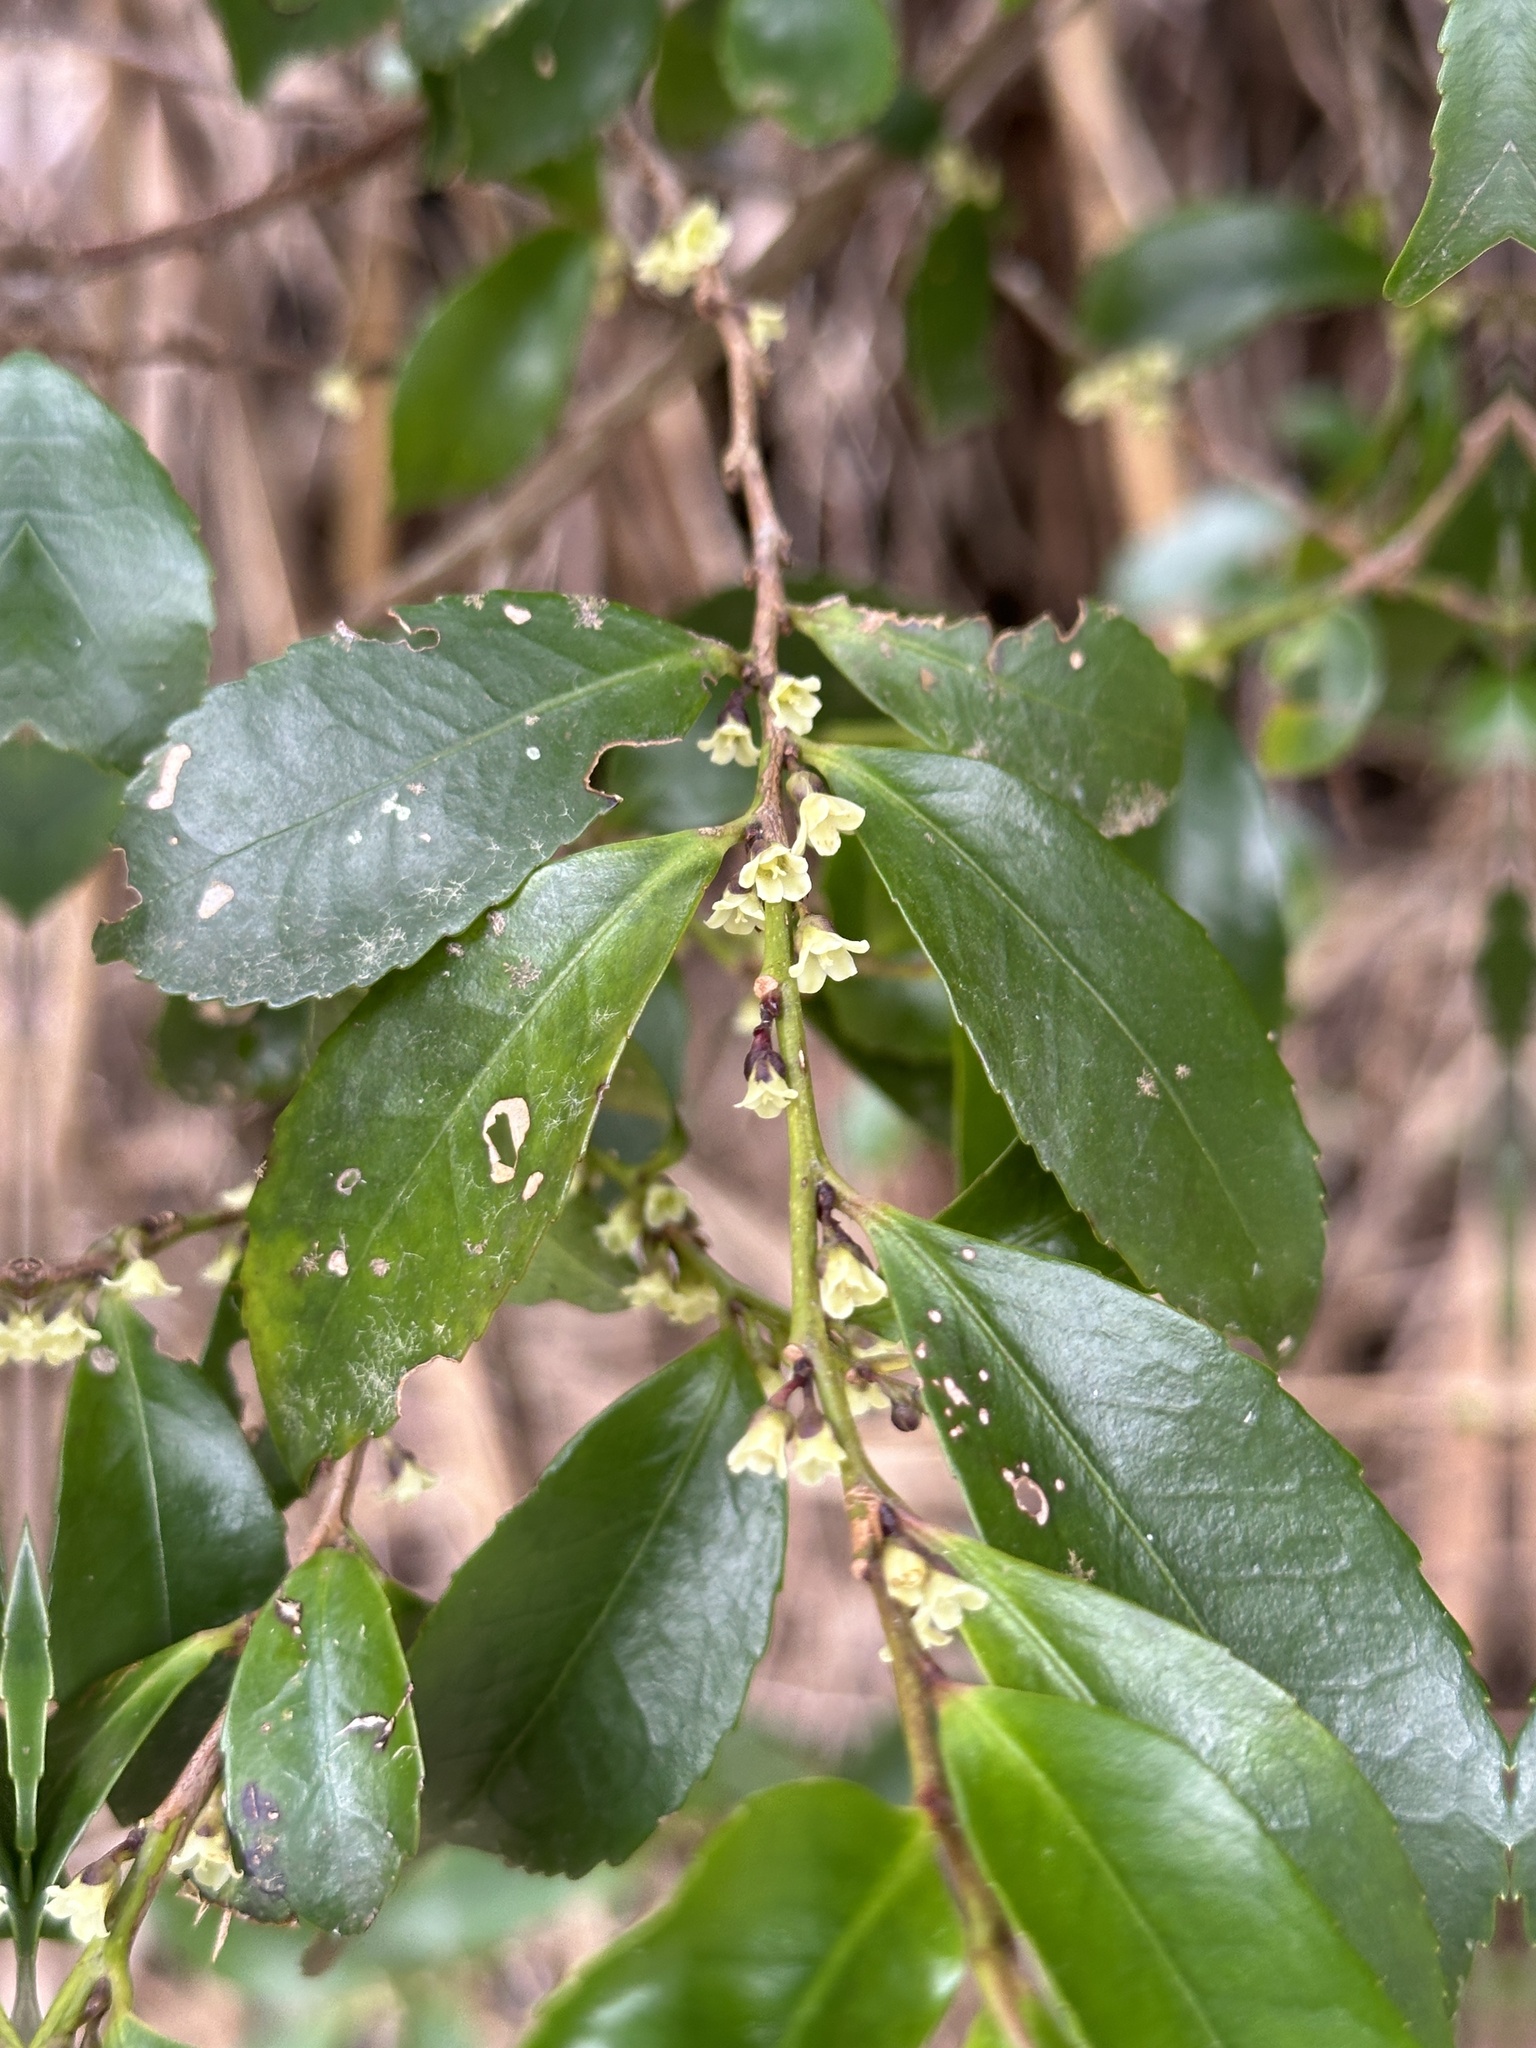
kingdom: Plantae
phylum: Tracheophyta
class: Magnoliopsida
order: Ericales
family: Pentaphylacaceae
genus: Eurya
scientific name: Eurya japonica
